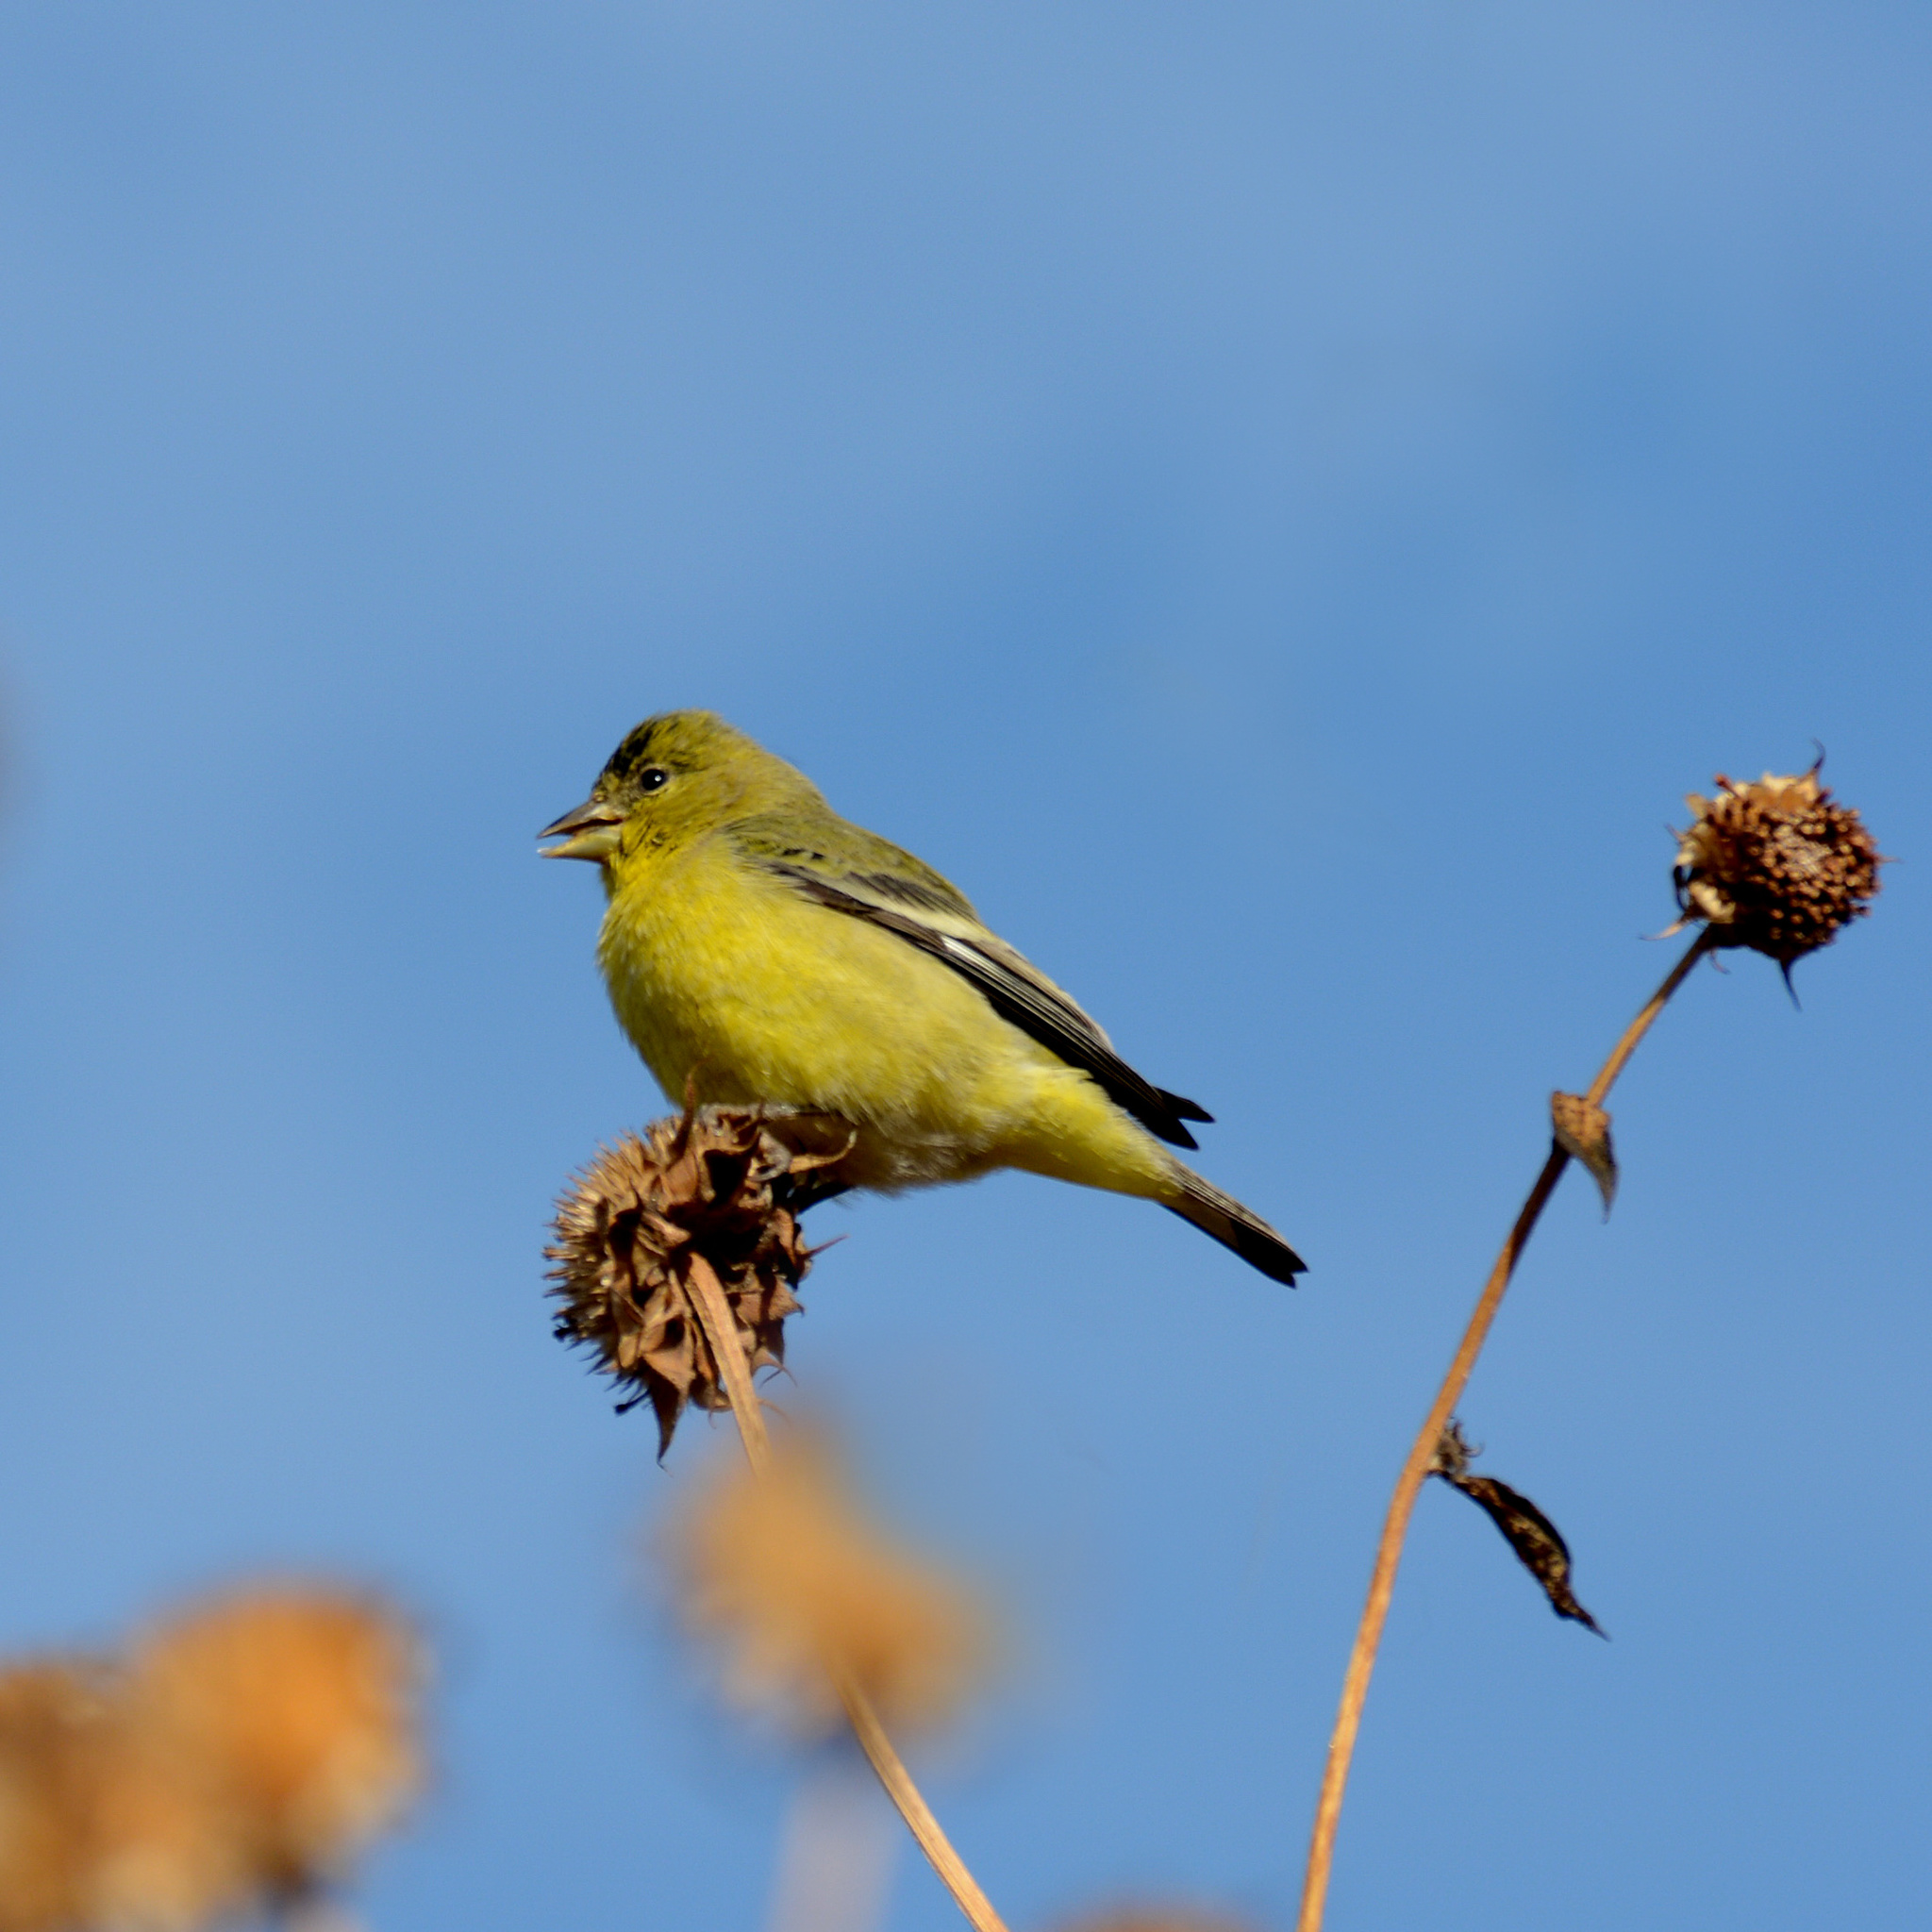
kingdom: Animalia
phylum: Chordata
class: Aves
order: Passeriformes
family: Fringillidae
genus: Spinus
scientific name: Spinus psaltria
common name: Lesser goldfinch
